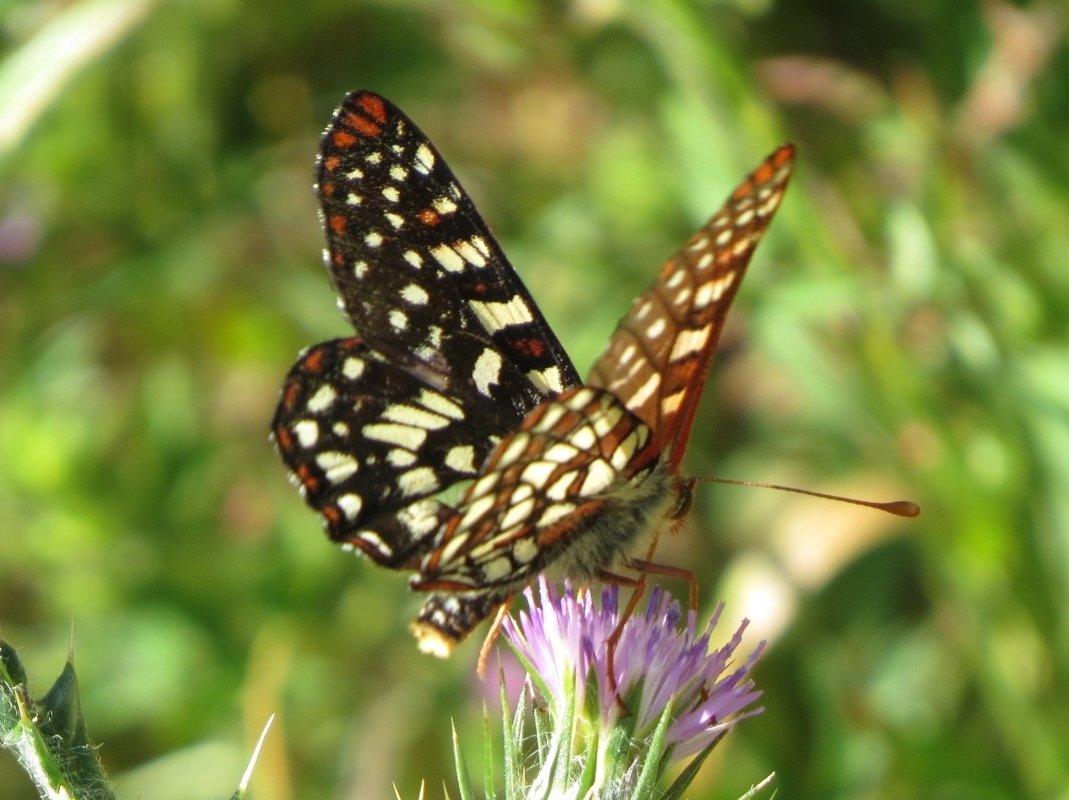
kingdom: Animalia
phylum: Arthropoda
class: Insecta
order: Lepidoptera
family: Nymphalidae
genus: Occidryas
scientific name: Occidryas chalcedona
